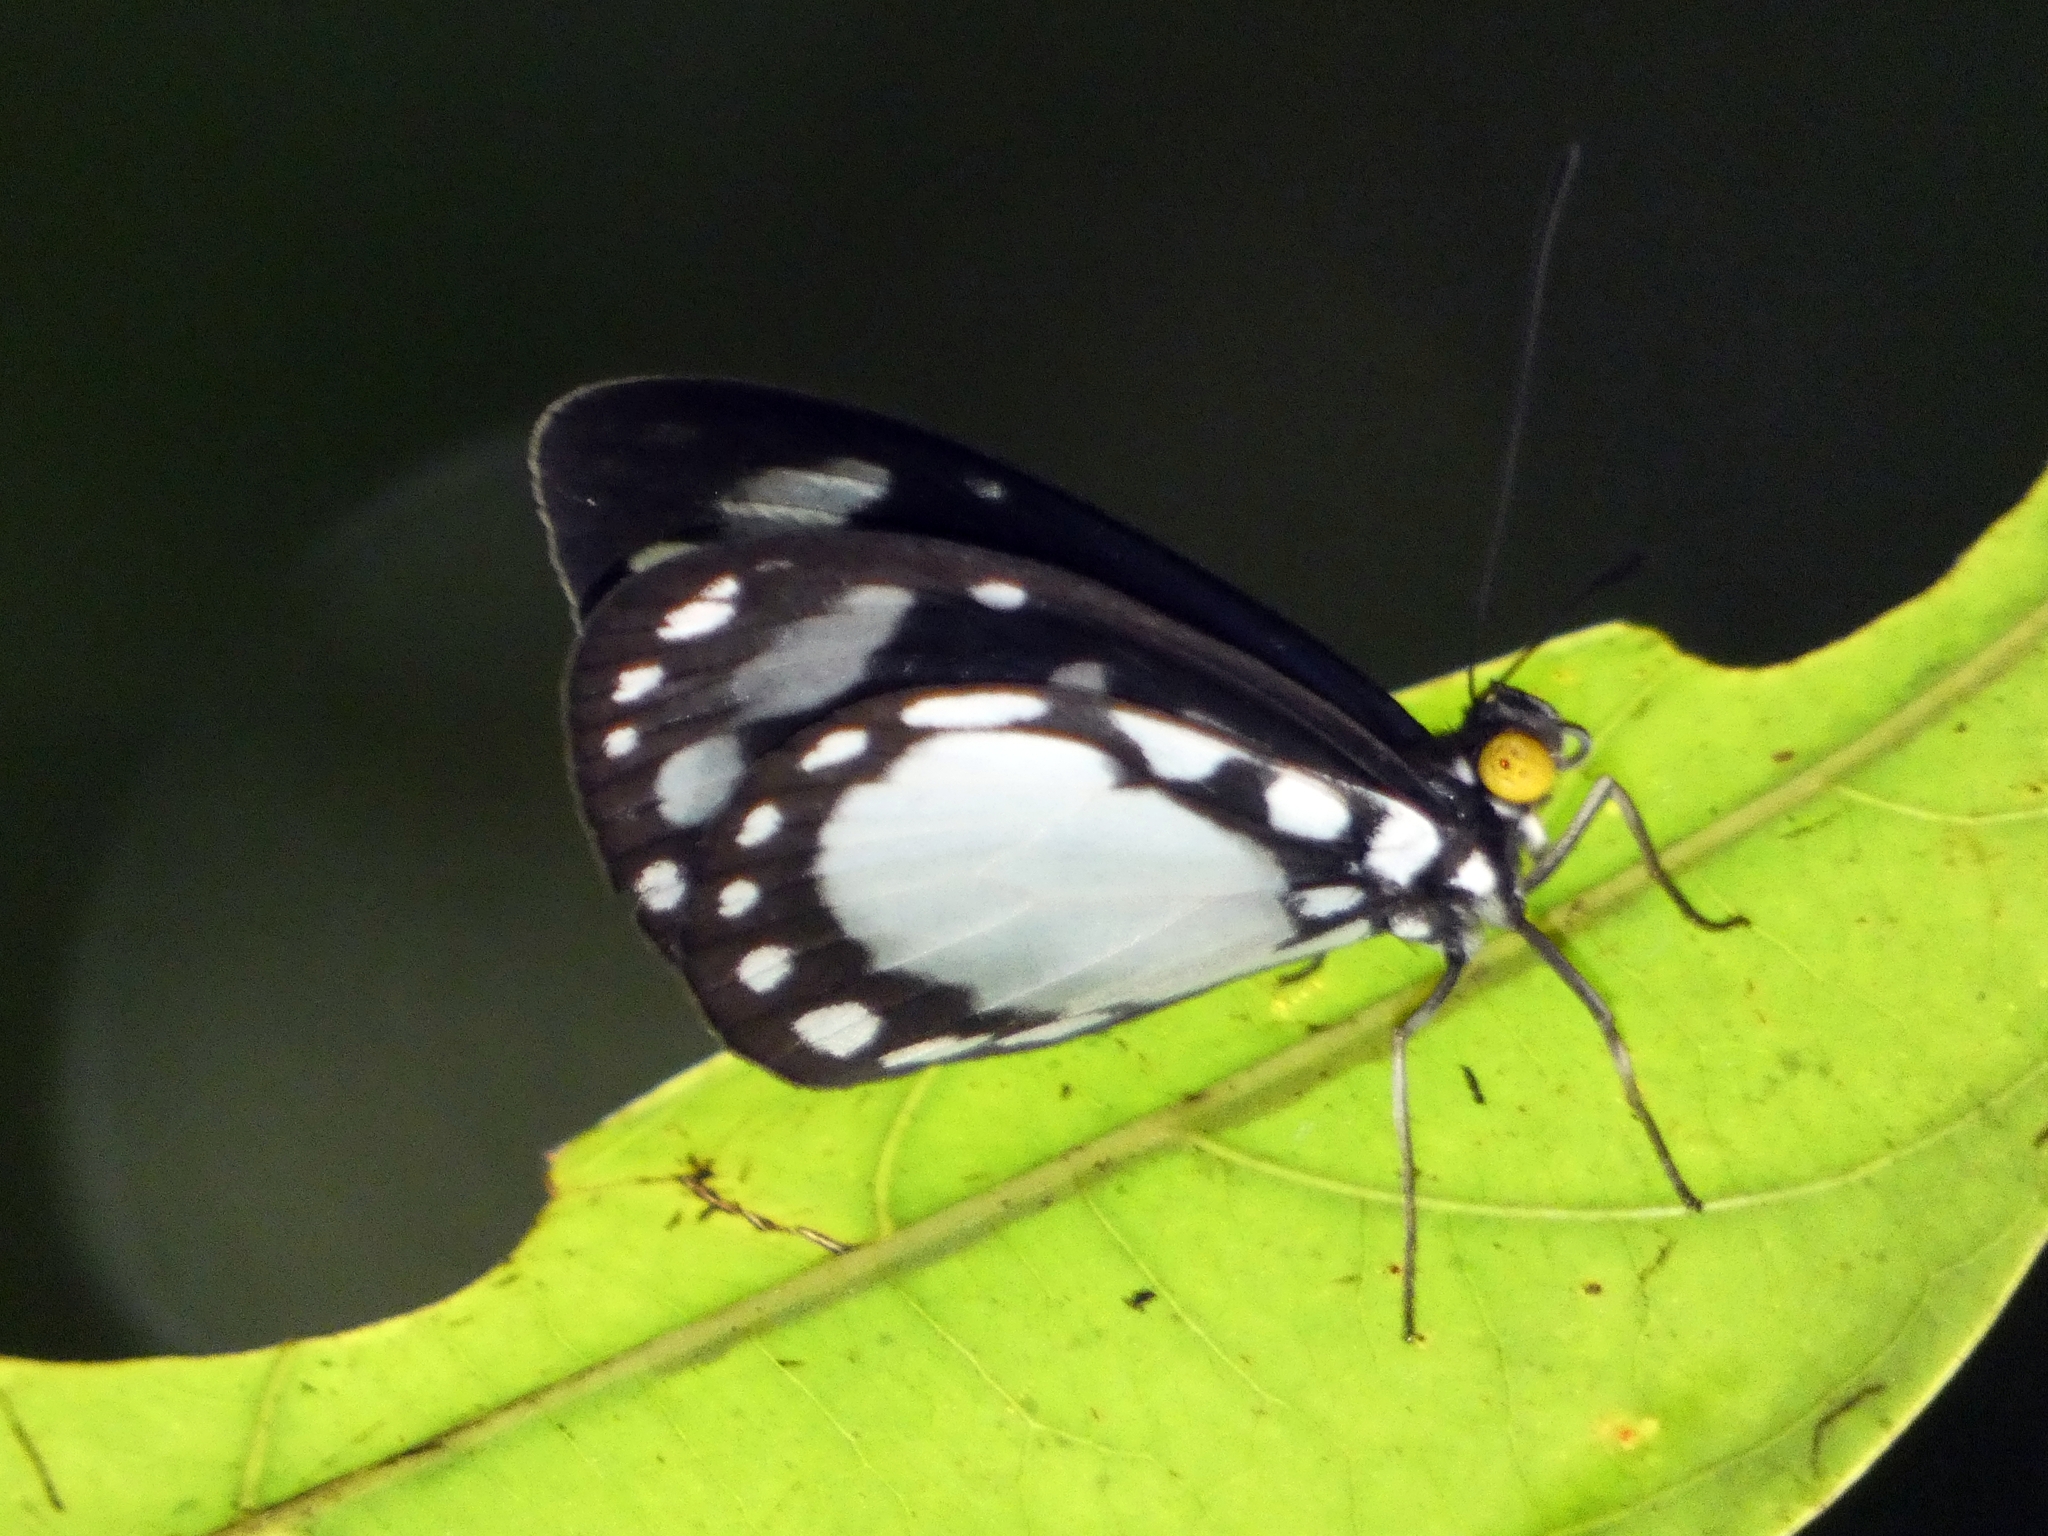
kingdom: Animalia
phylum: Arthropoda
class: Insecta
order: Lepidoptera
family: Nymphalidae
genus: Tellervo
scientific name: Tellervo zoilus
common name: Hamadryad
